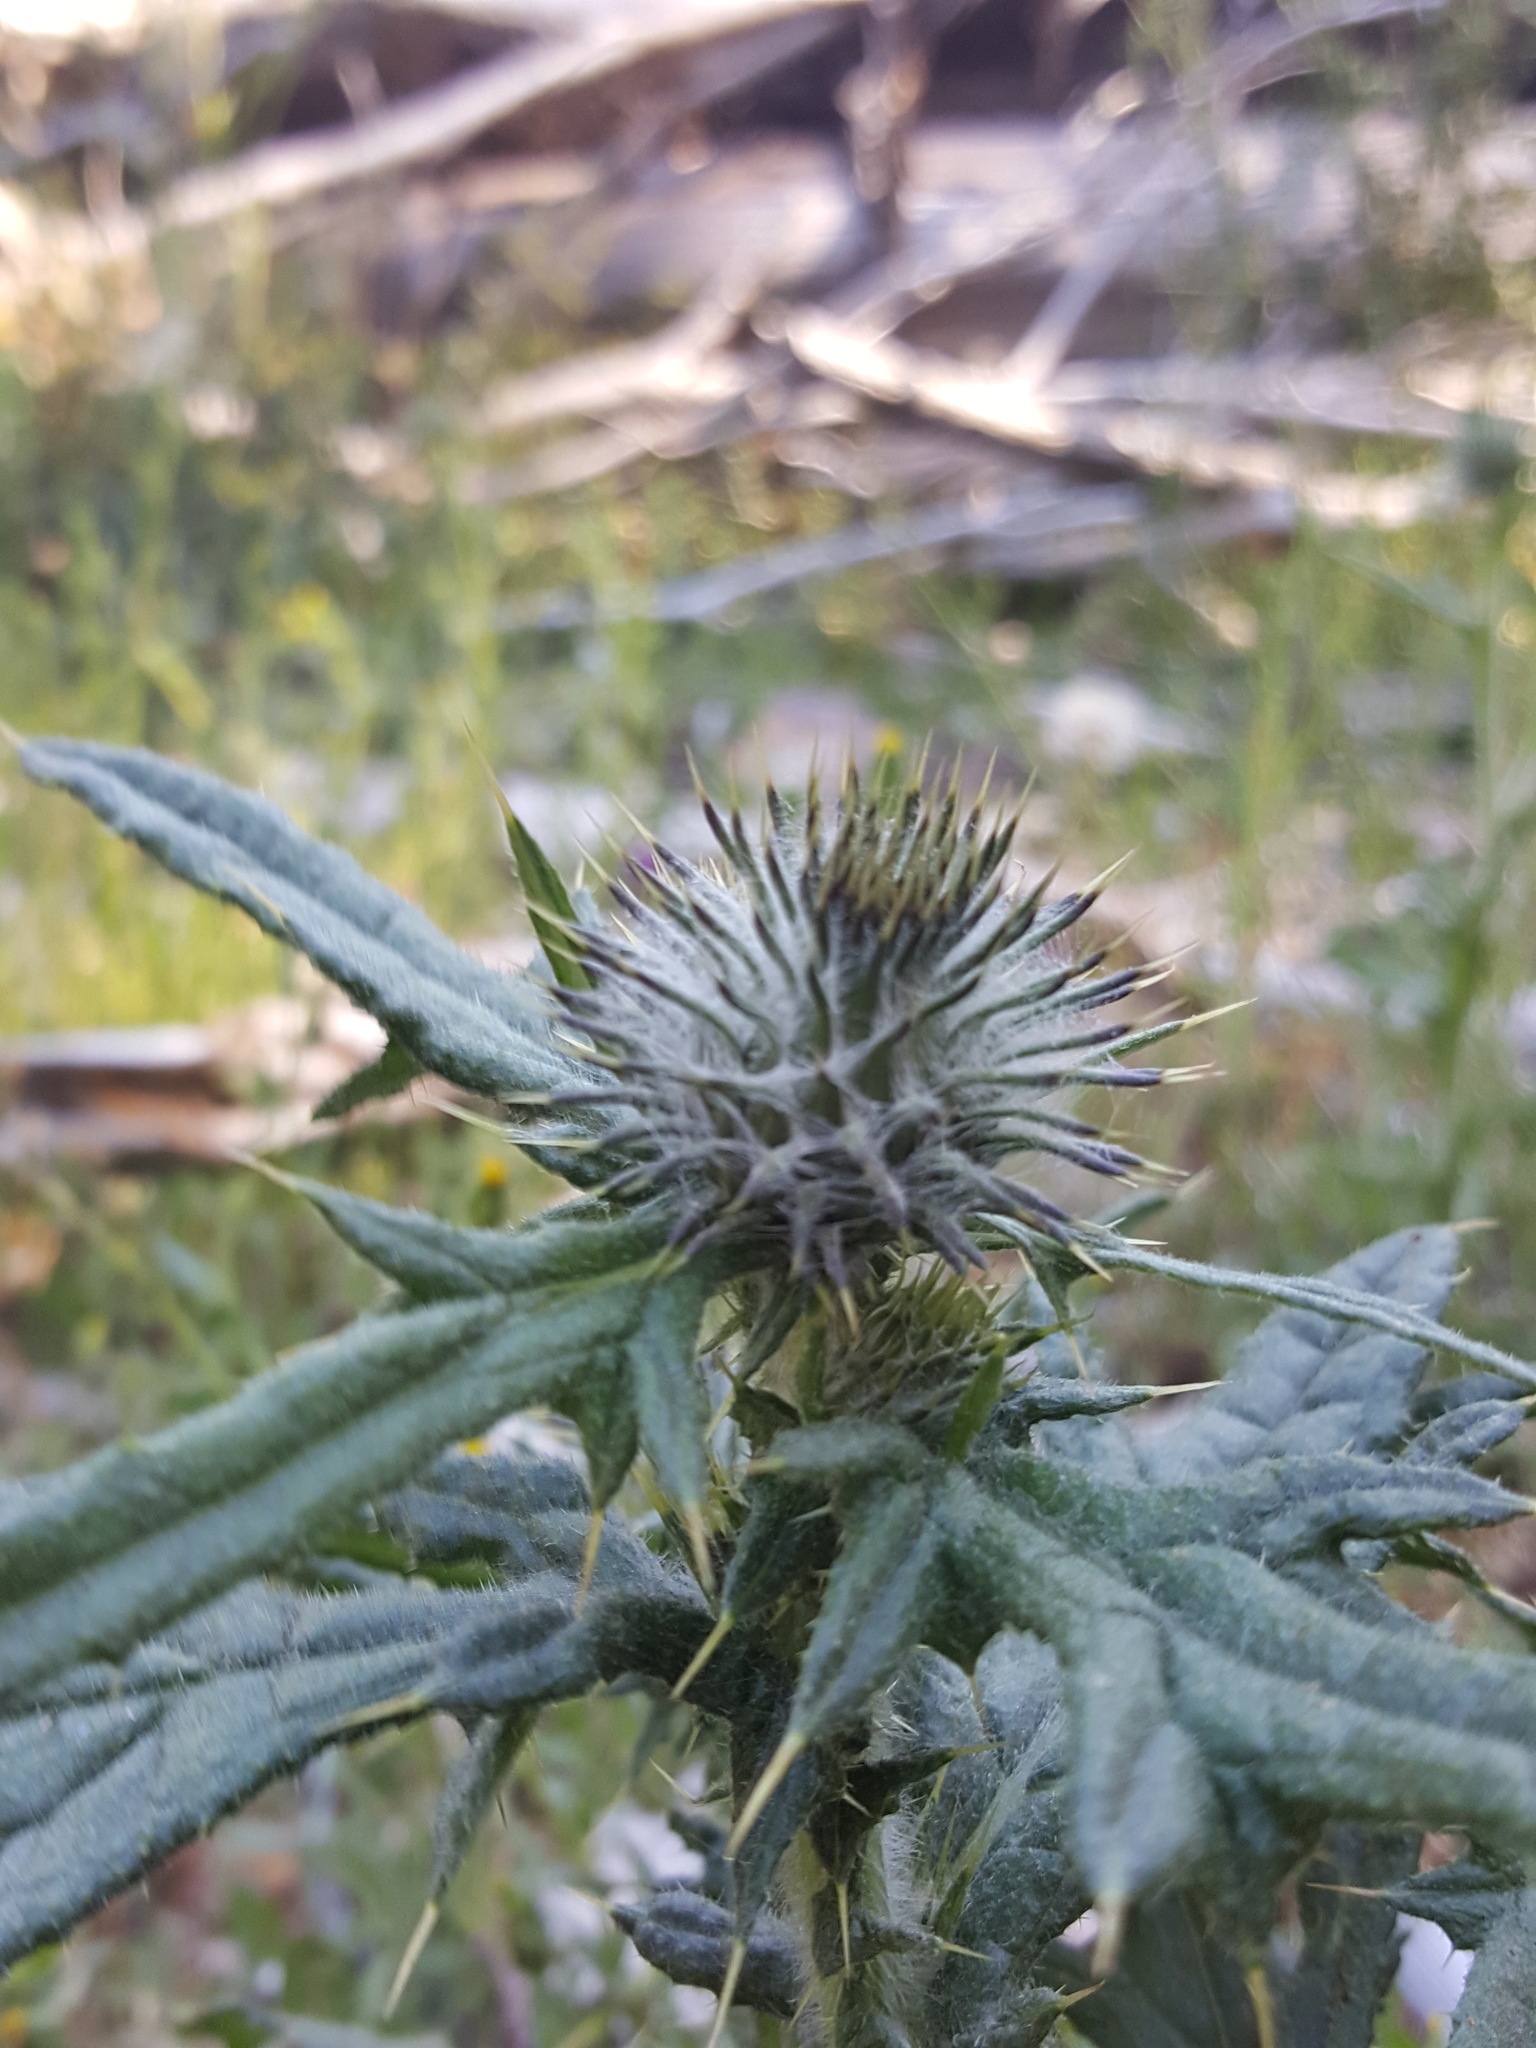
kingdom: Plantae
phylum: Tracheophyta
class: Magnoliopsida
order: Asterales
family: Asteraceae
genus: Cirsium
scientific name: Cirsium vulgare
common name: Bull thistle
